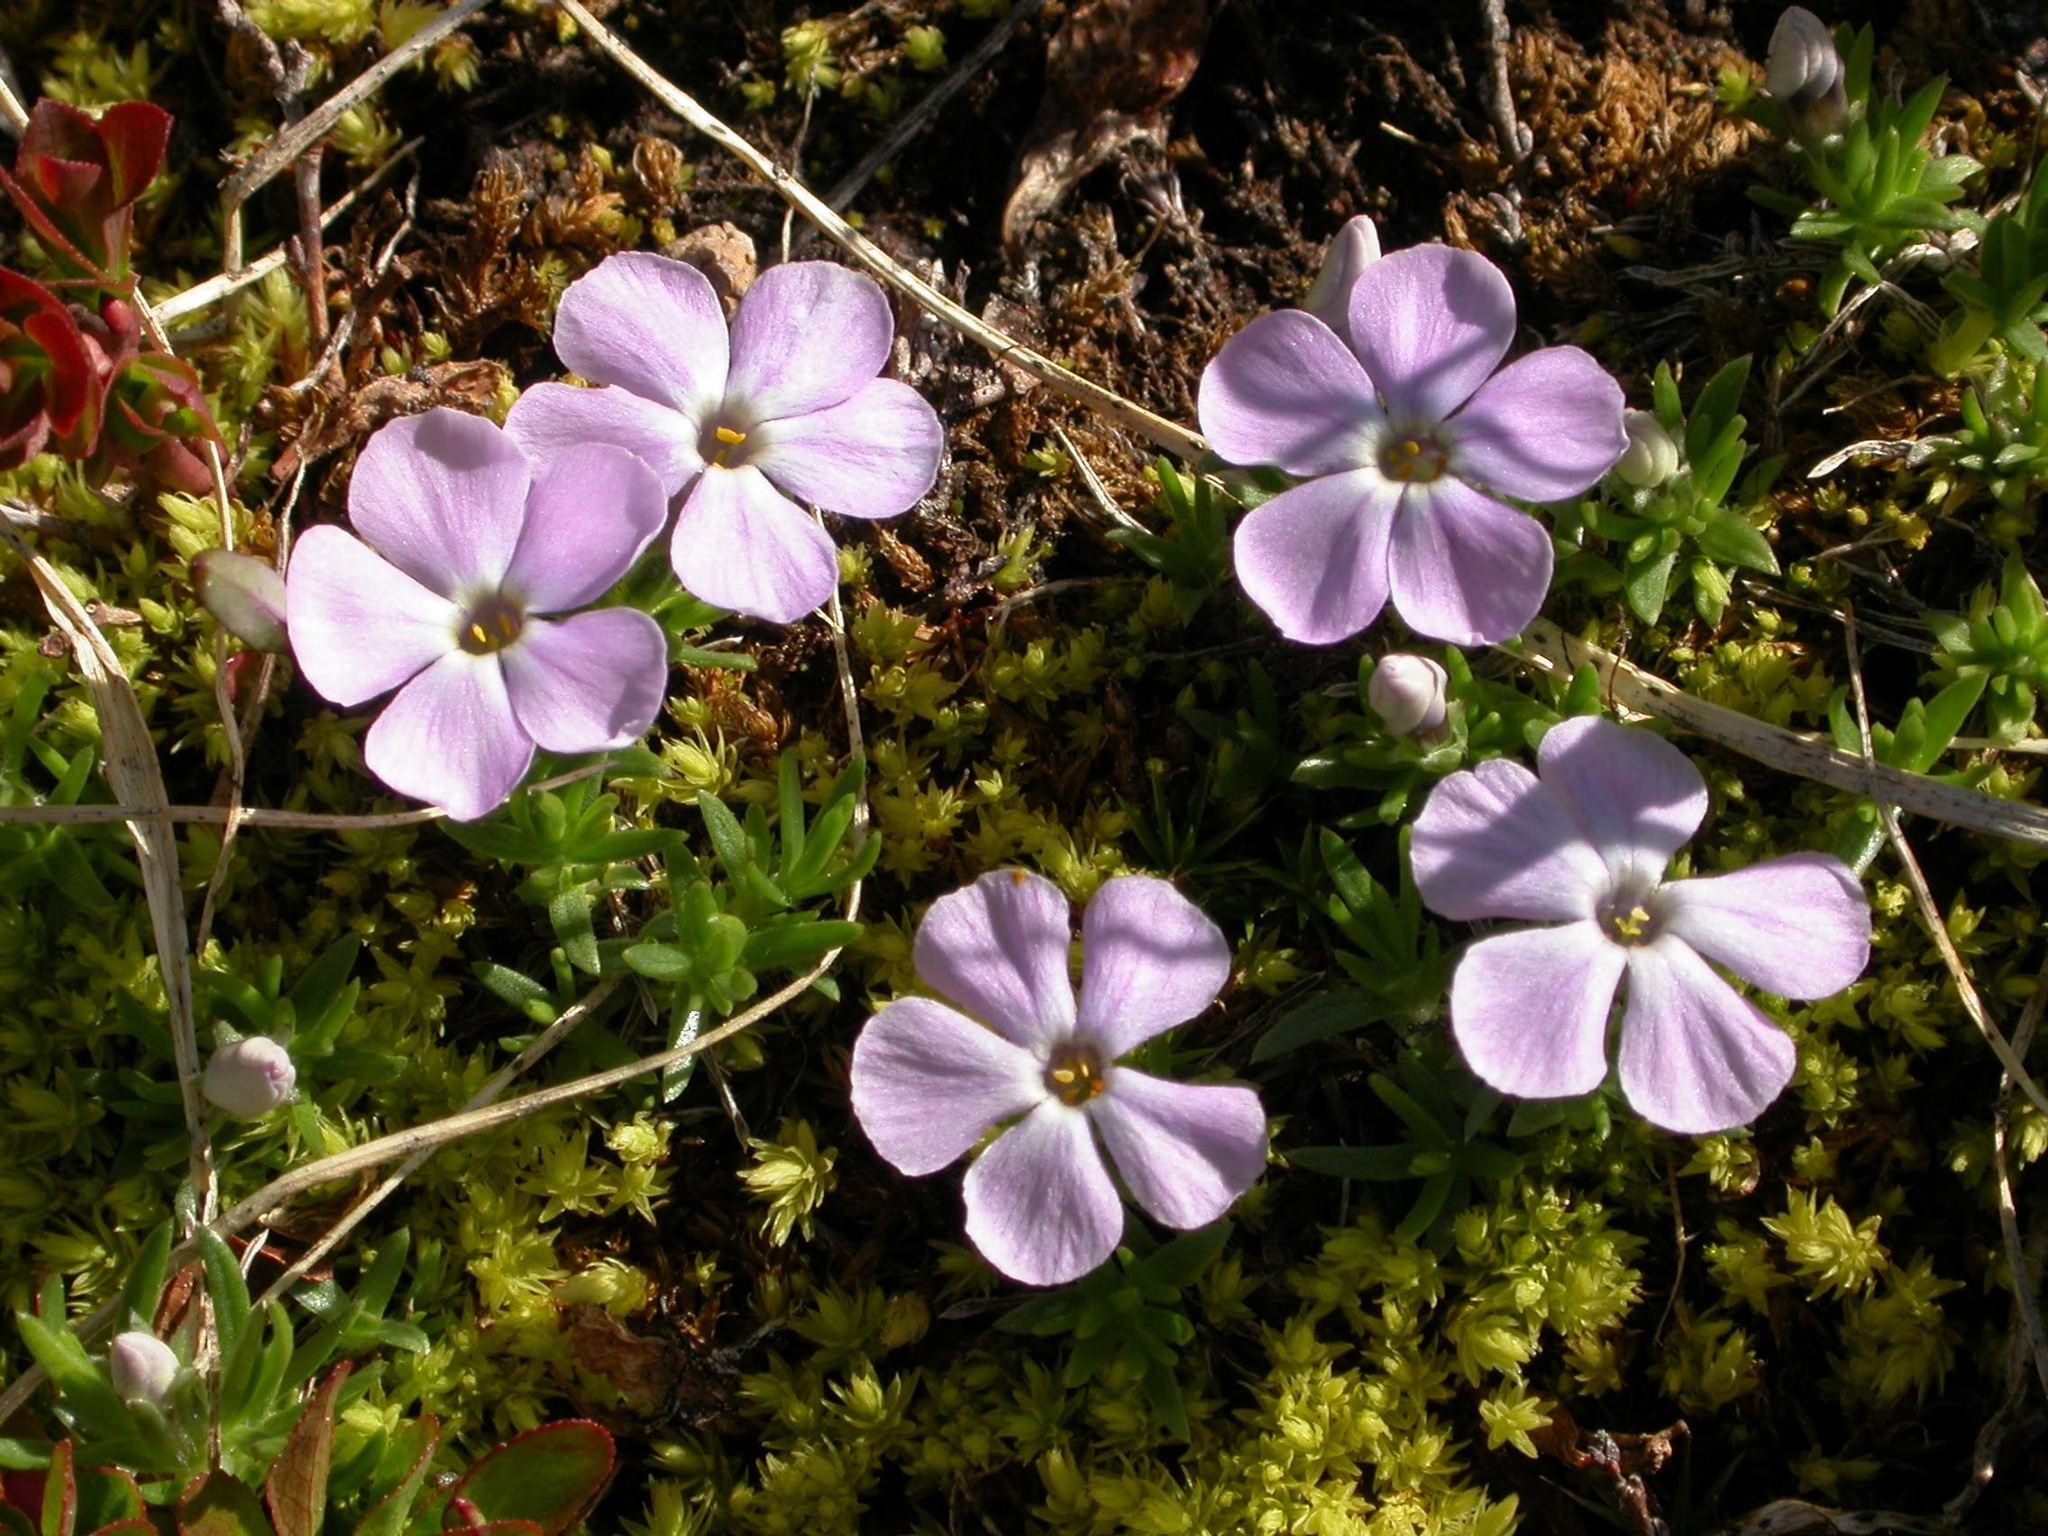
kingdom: Plantae
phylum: Tracheophyta
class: Magnoliopsida
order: Ericales
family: Polemoniaceae
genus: Phlox
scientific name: Phlox diffusa
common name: Mat phlox
